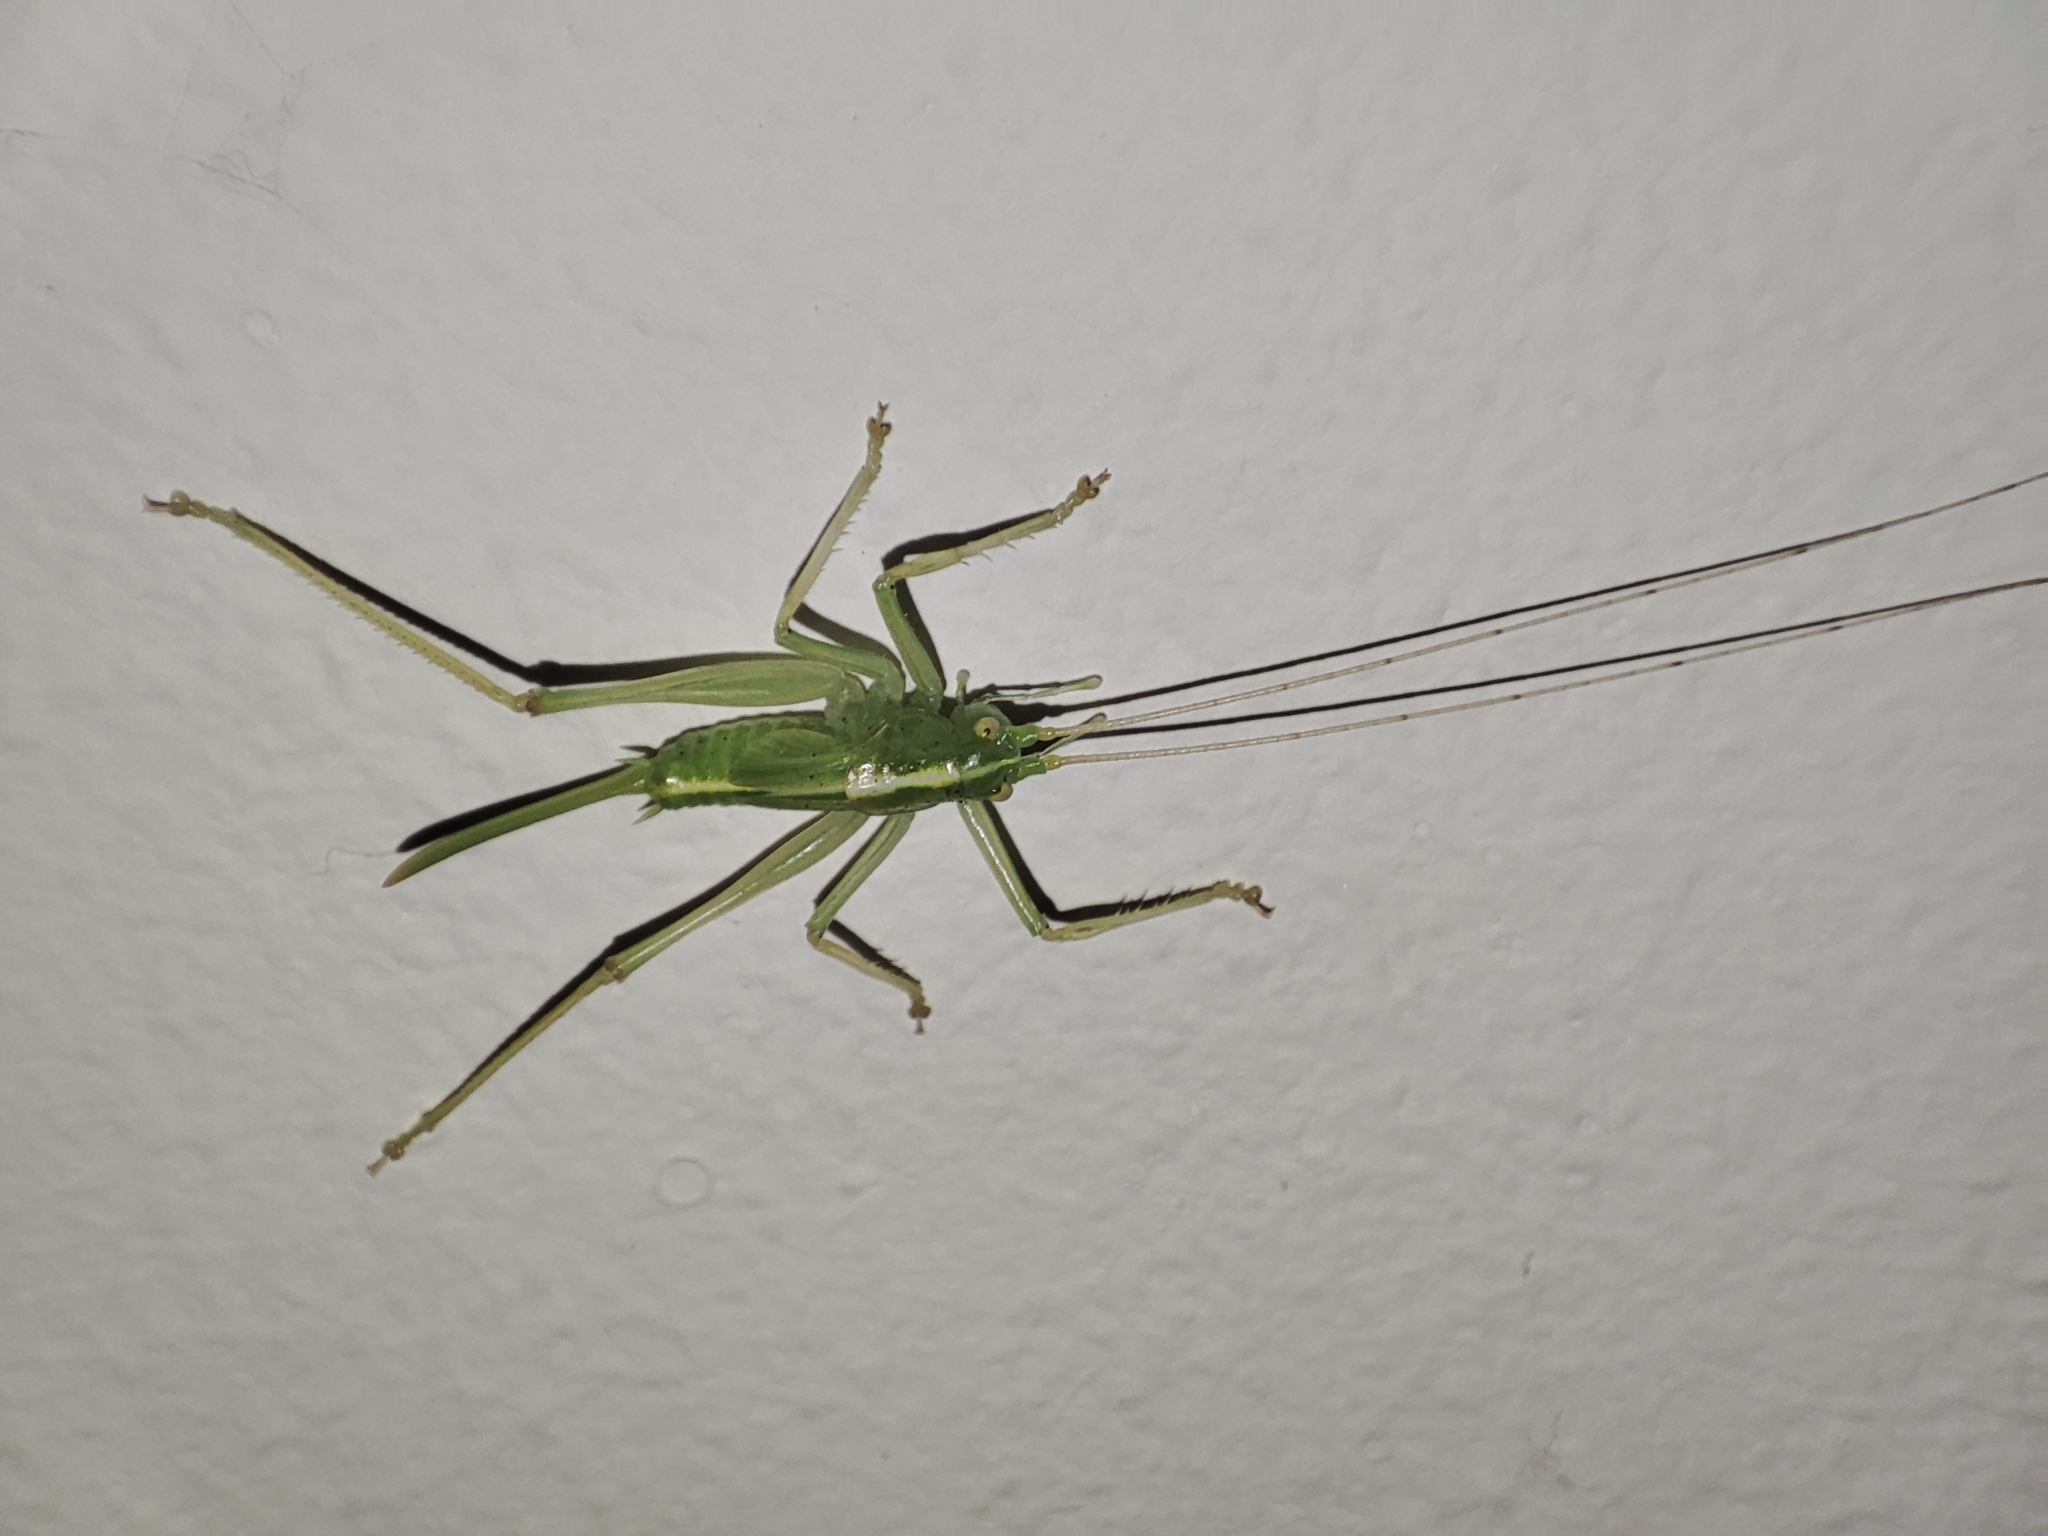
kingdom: Animalia
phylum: Arthropoda
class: Insecta
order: Orthoptera
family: Tettigoniidae
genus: Meconema
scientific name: Meconema thalassinum
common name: Oak bush-cricket
